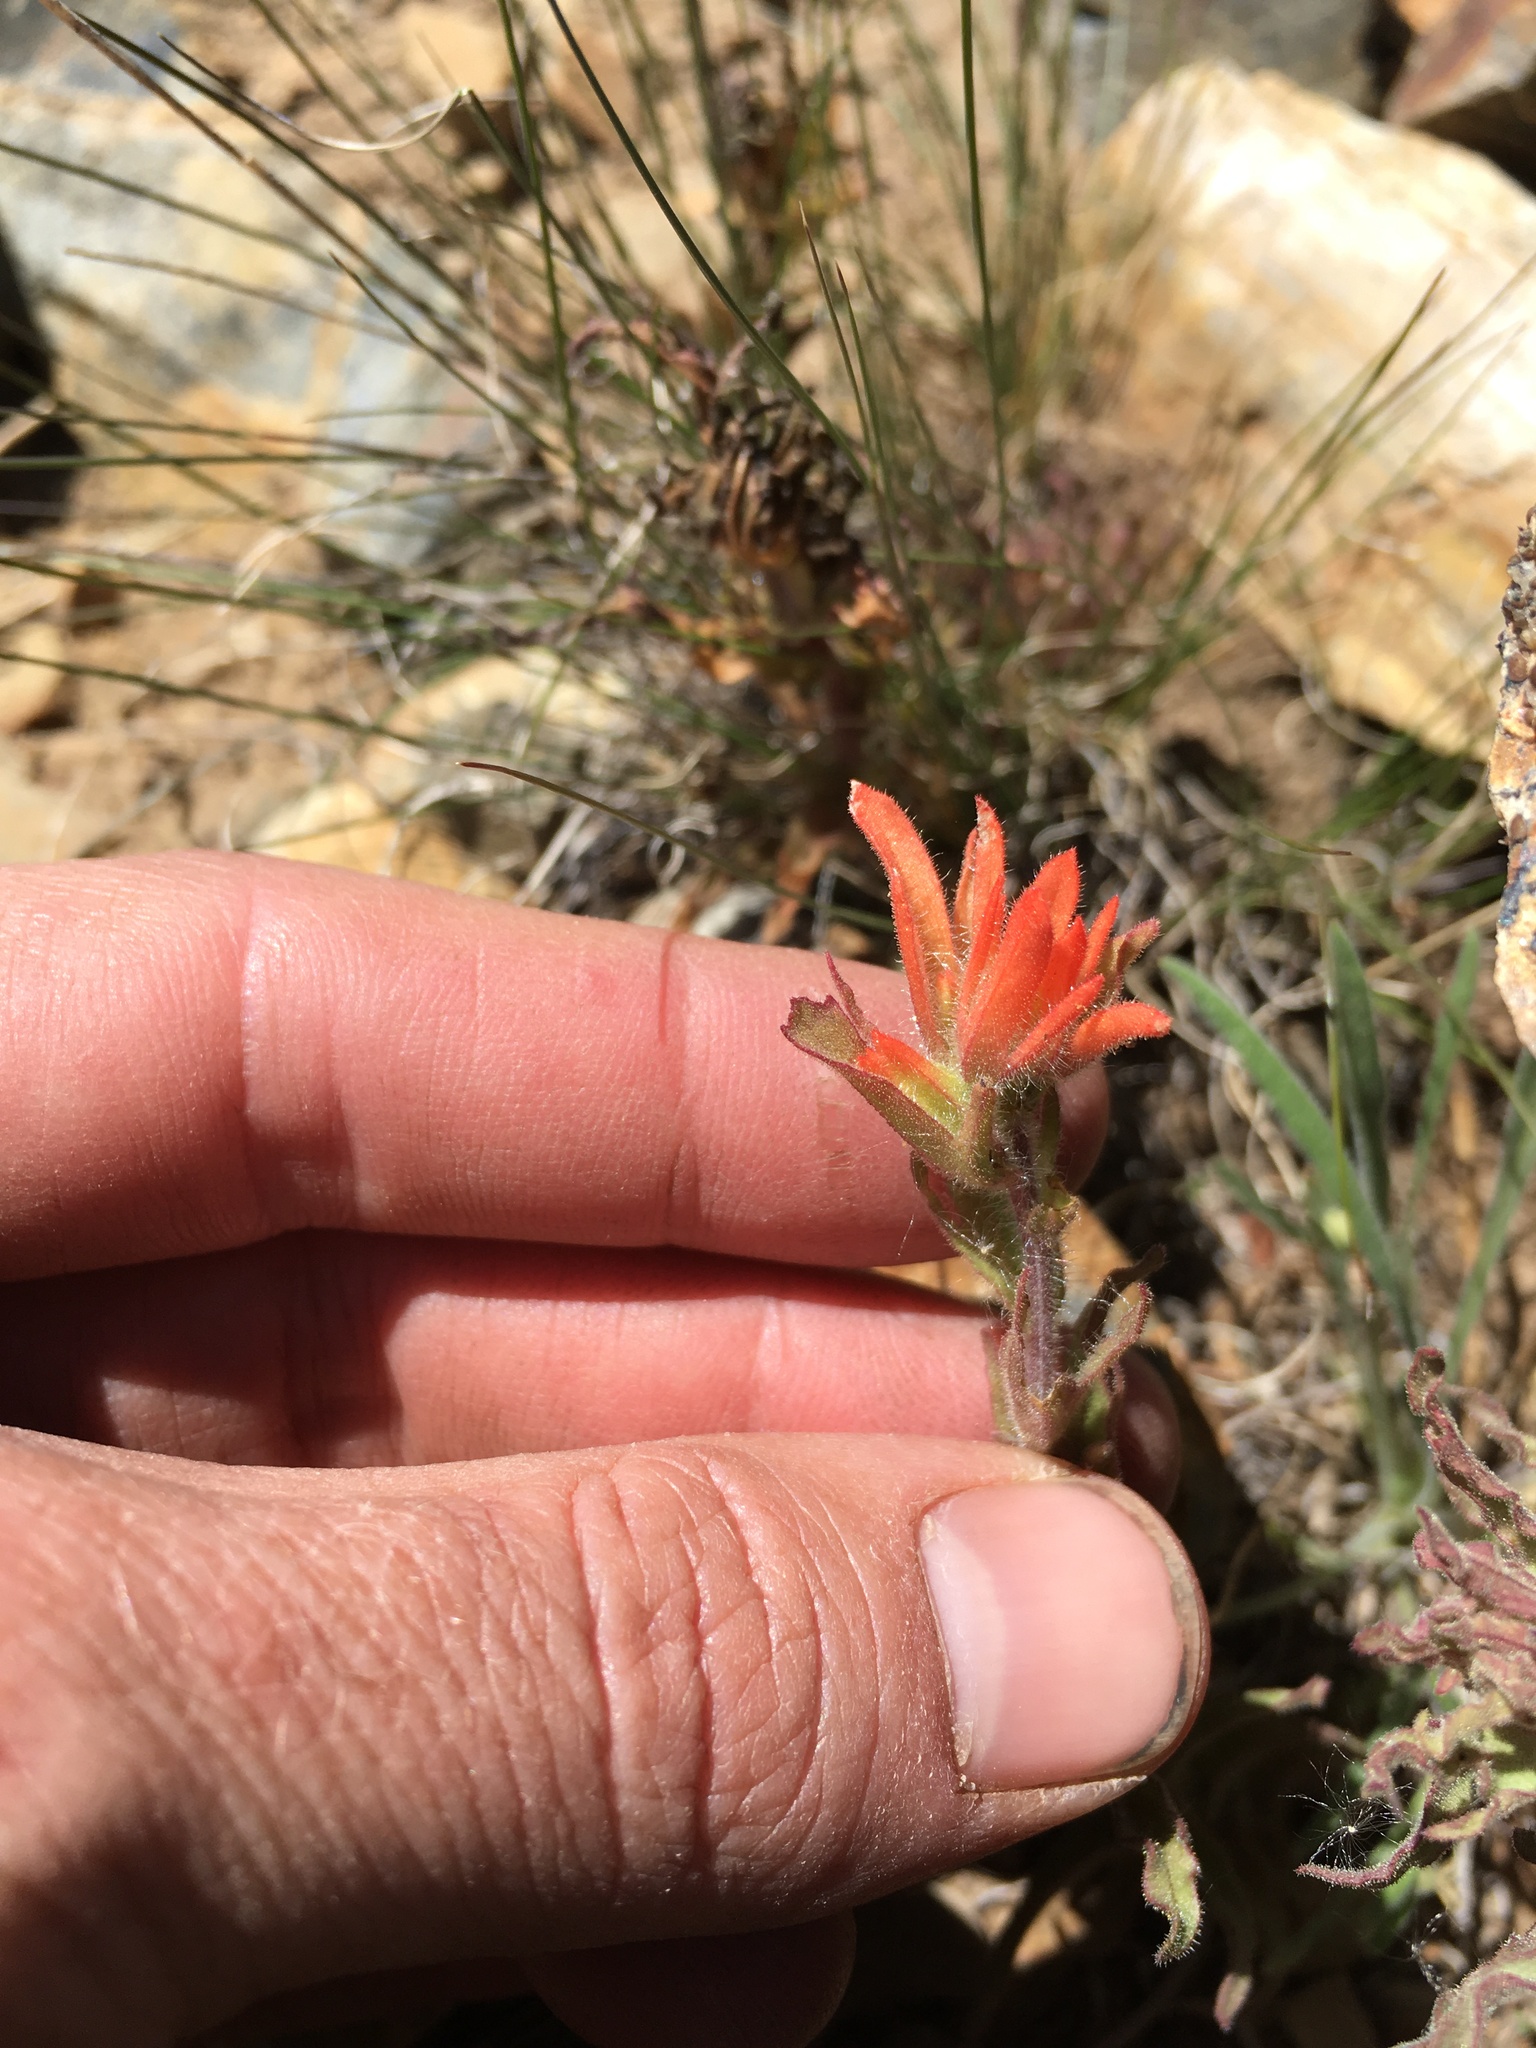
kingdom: Plantae
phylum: Tracheophyta
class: Magnoliopsida
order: Lamiales
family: Orobanchaceae
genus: Castilleja
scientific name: Castilleja applegatei
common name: Wavy-leaf paintbrush
